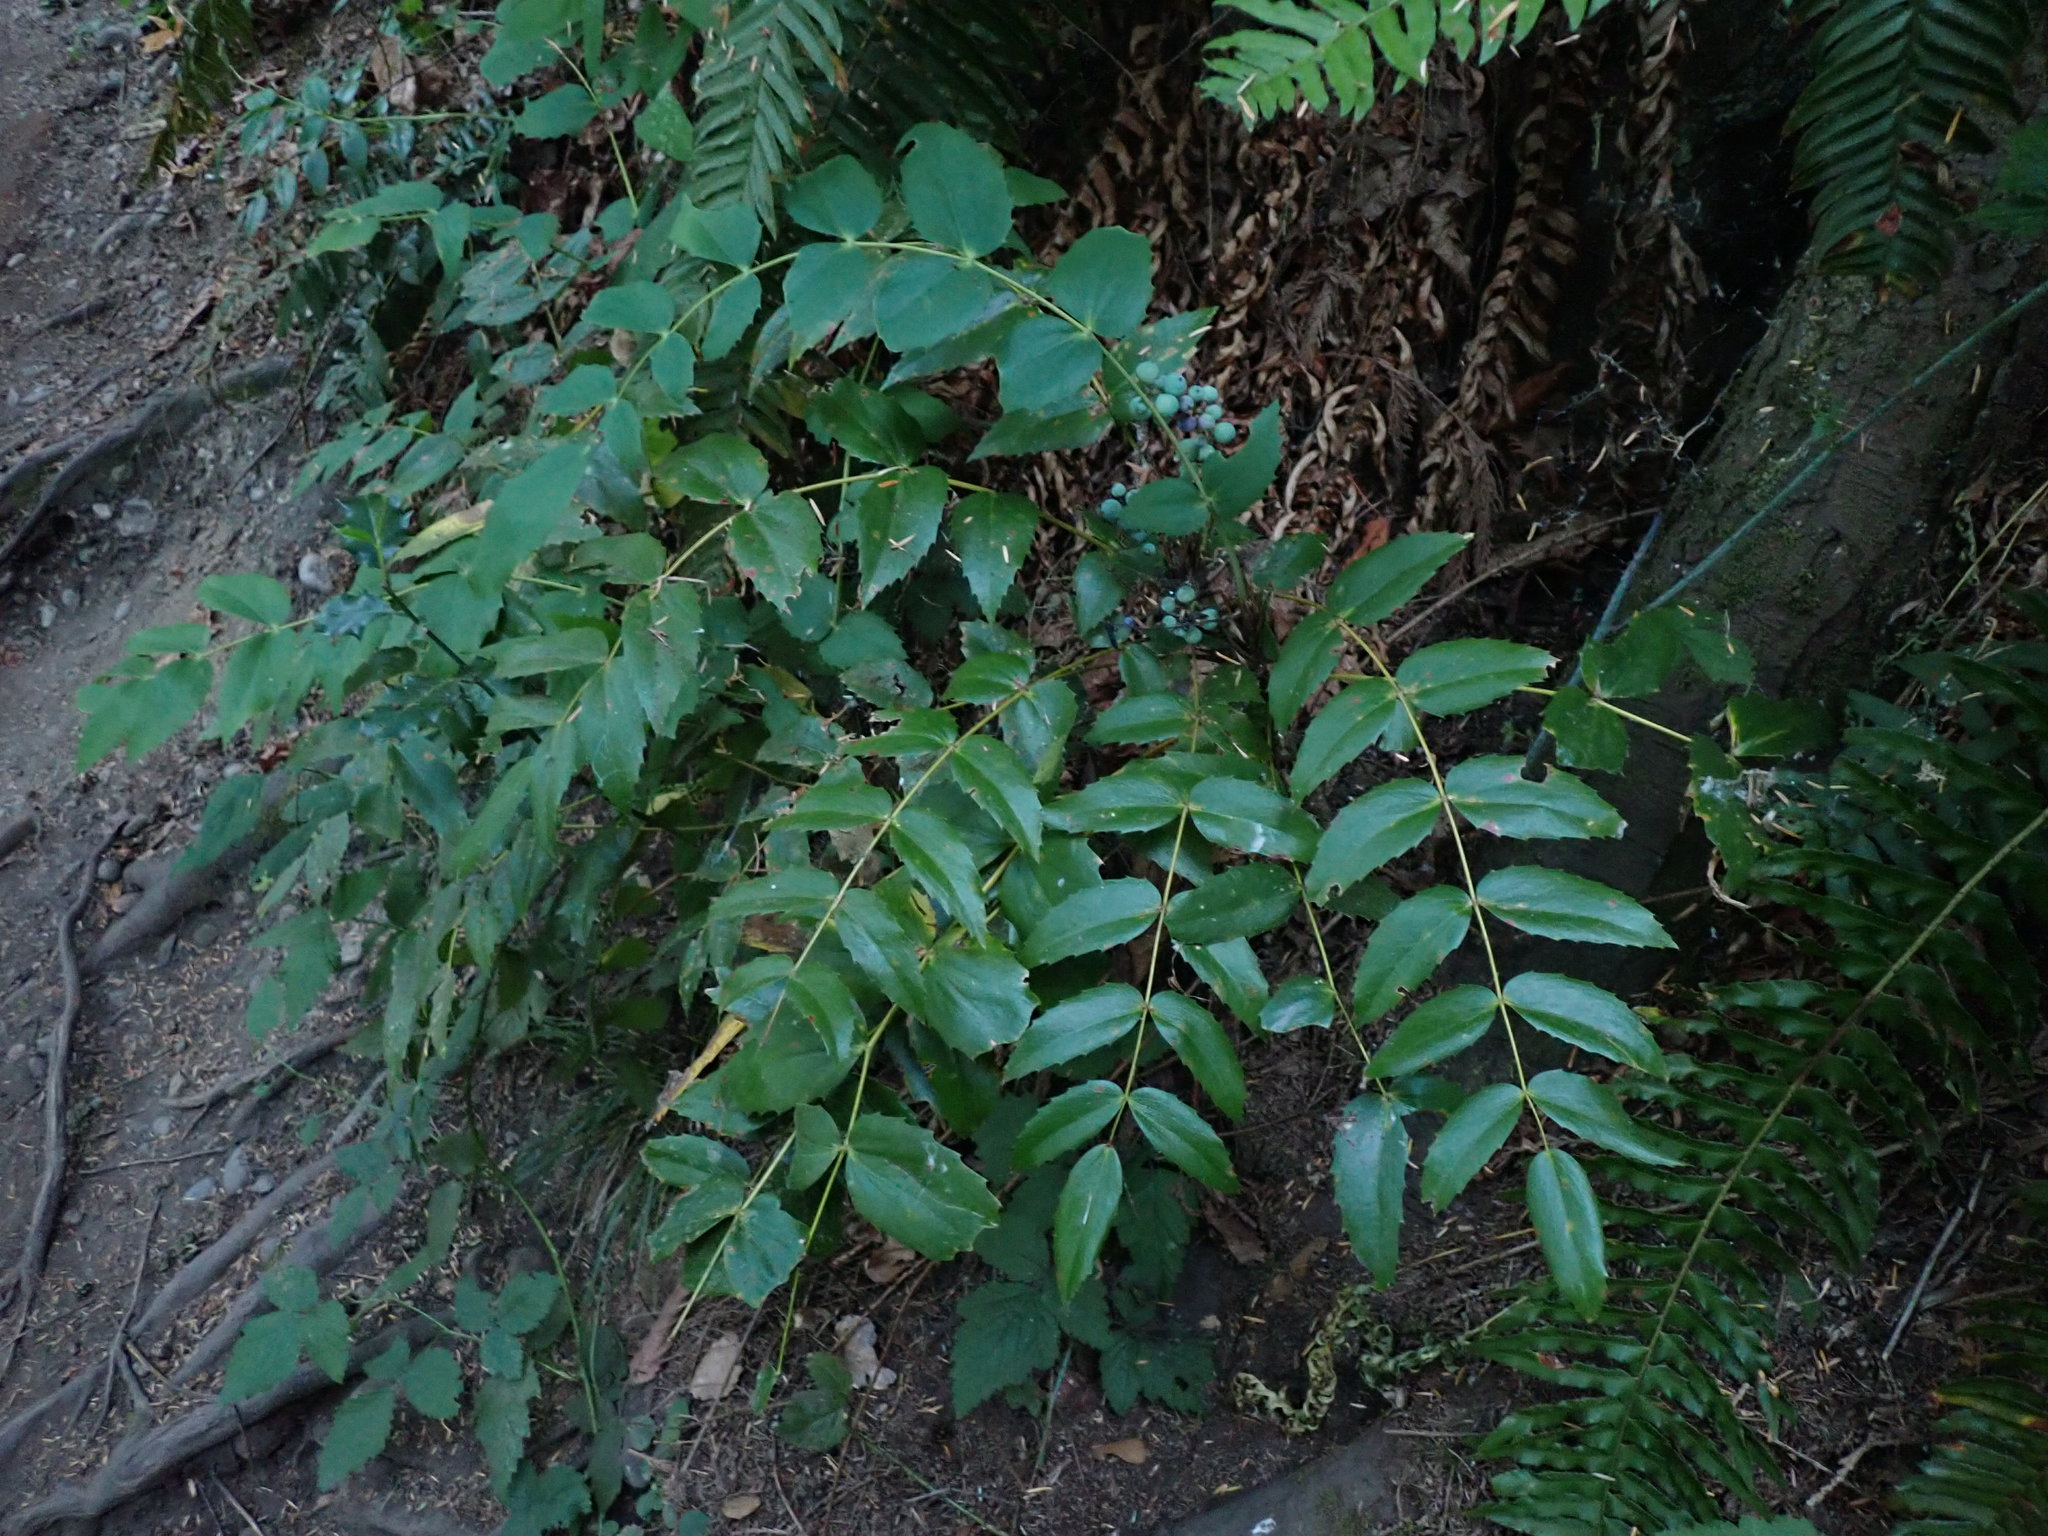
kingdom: Plantae
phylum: Tracheophyta
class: Magnoliopsida
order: Ranunculales
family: Berberidaceae
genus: Mahonia
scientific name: Mahonia nervosa
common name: Cascade oregon-grape
